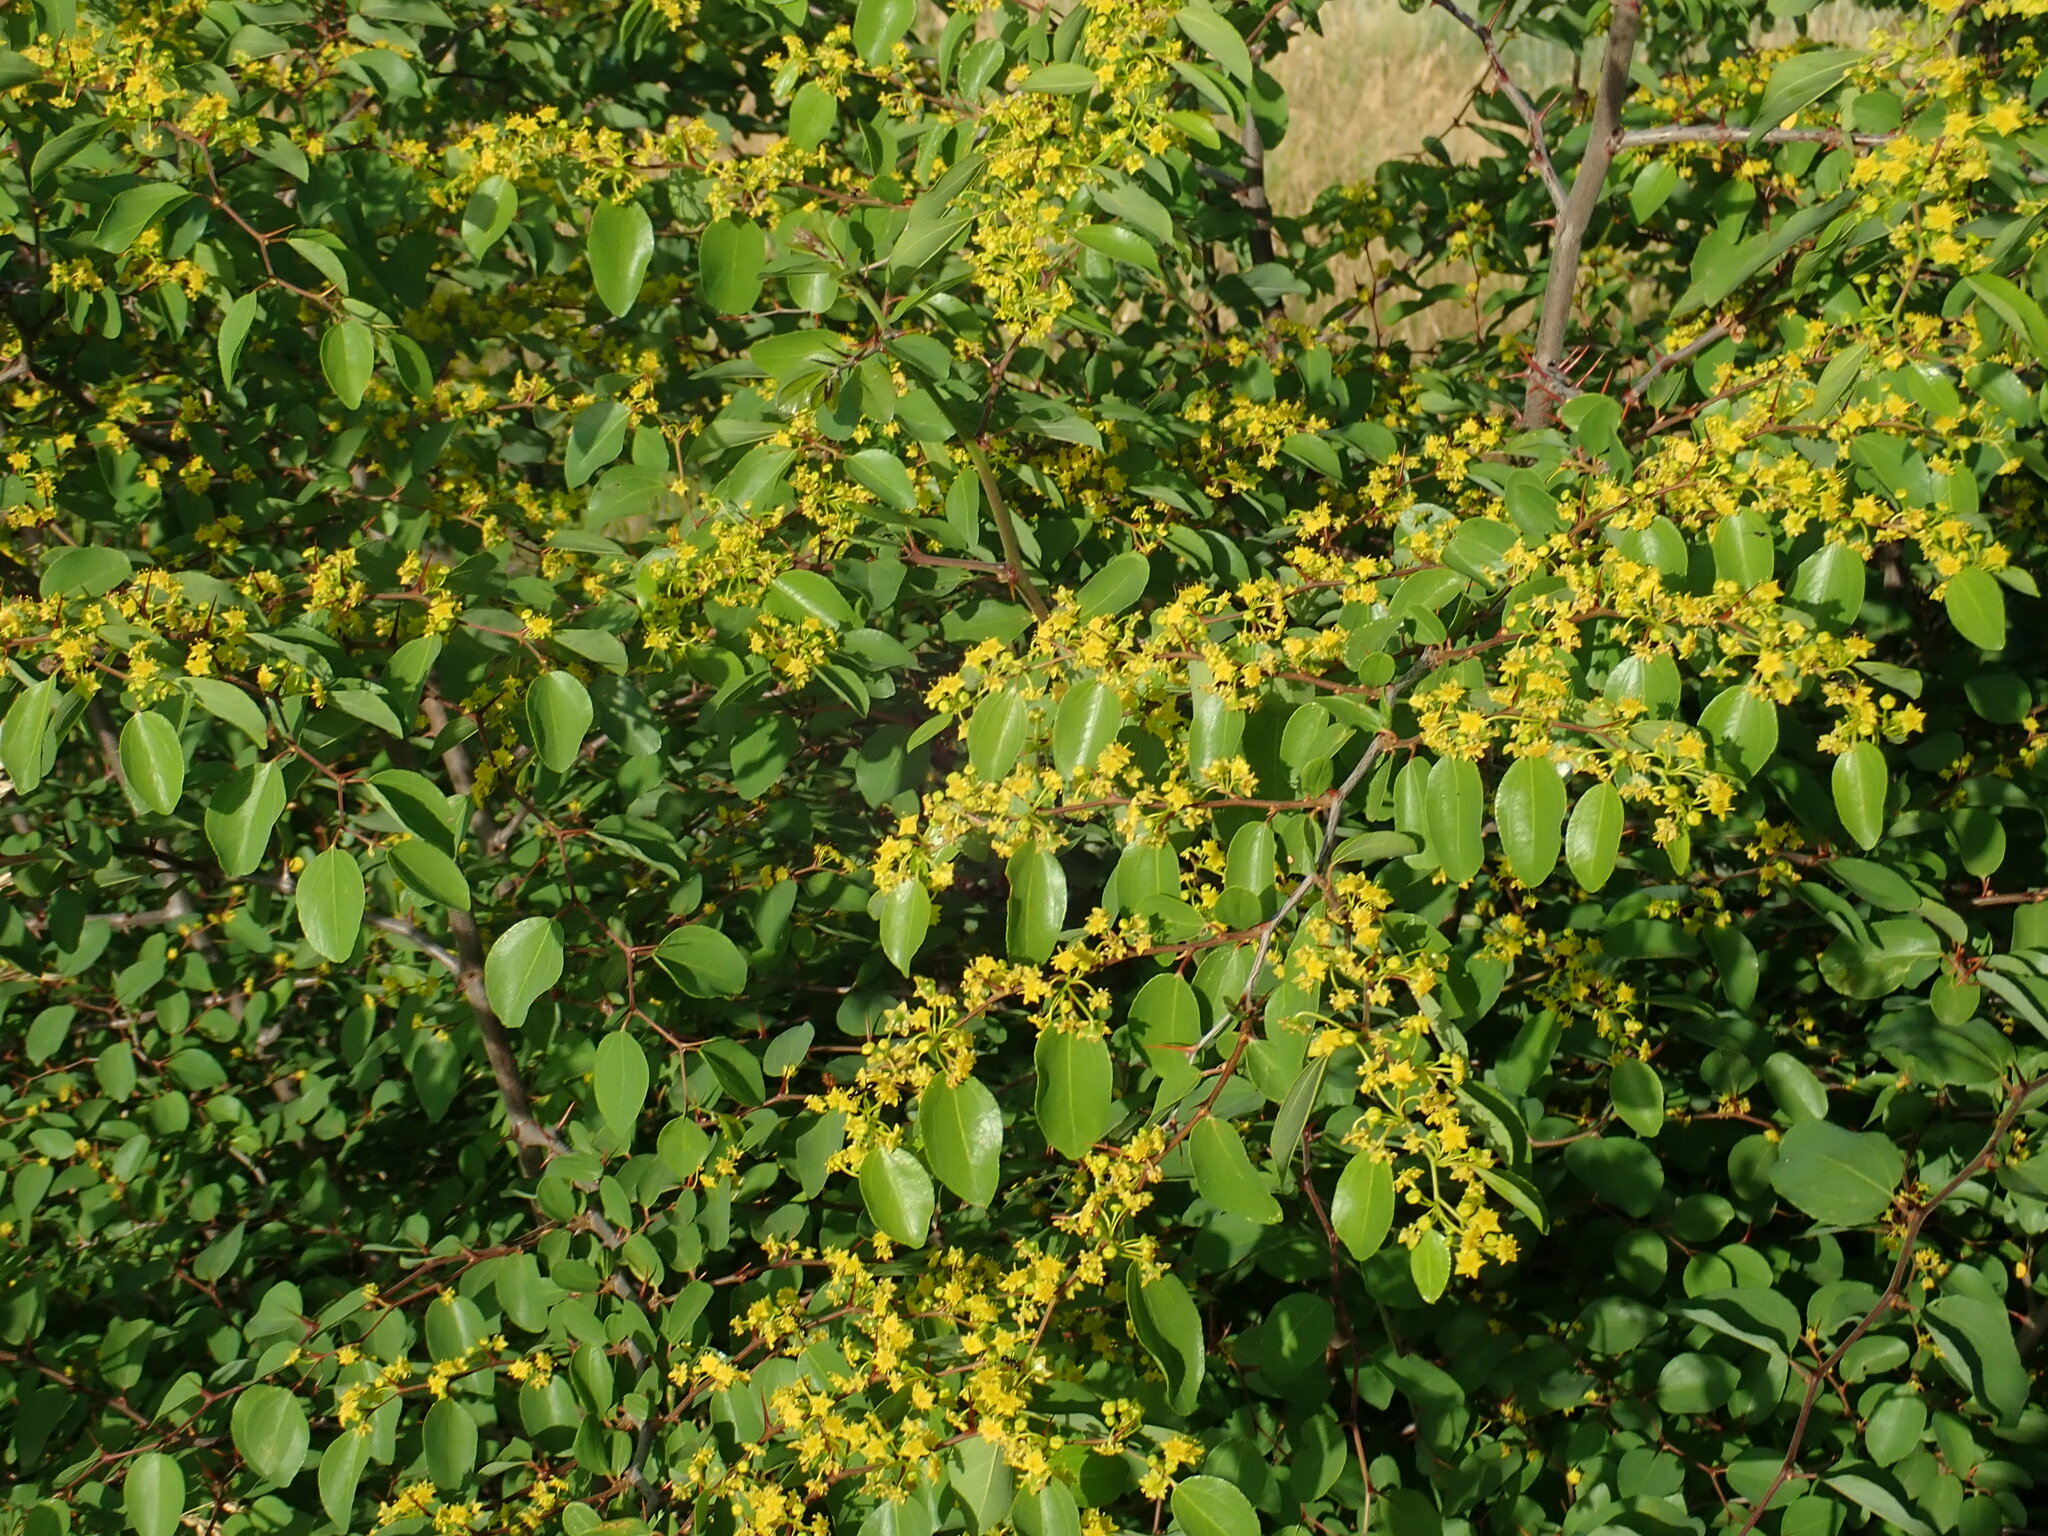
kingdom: Plantae
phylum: Tracheophyta
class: Magnoliopsida
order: Rosales
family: Rhamnaceae
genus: Paliurus
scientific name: Paliurus spina-christi
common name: Jeruselem thorn
